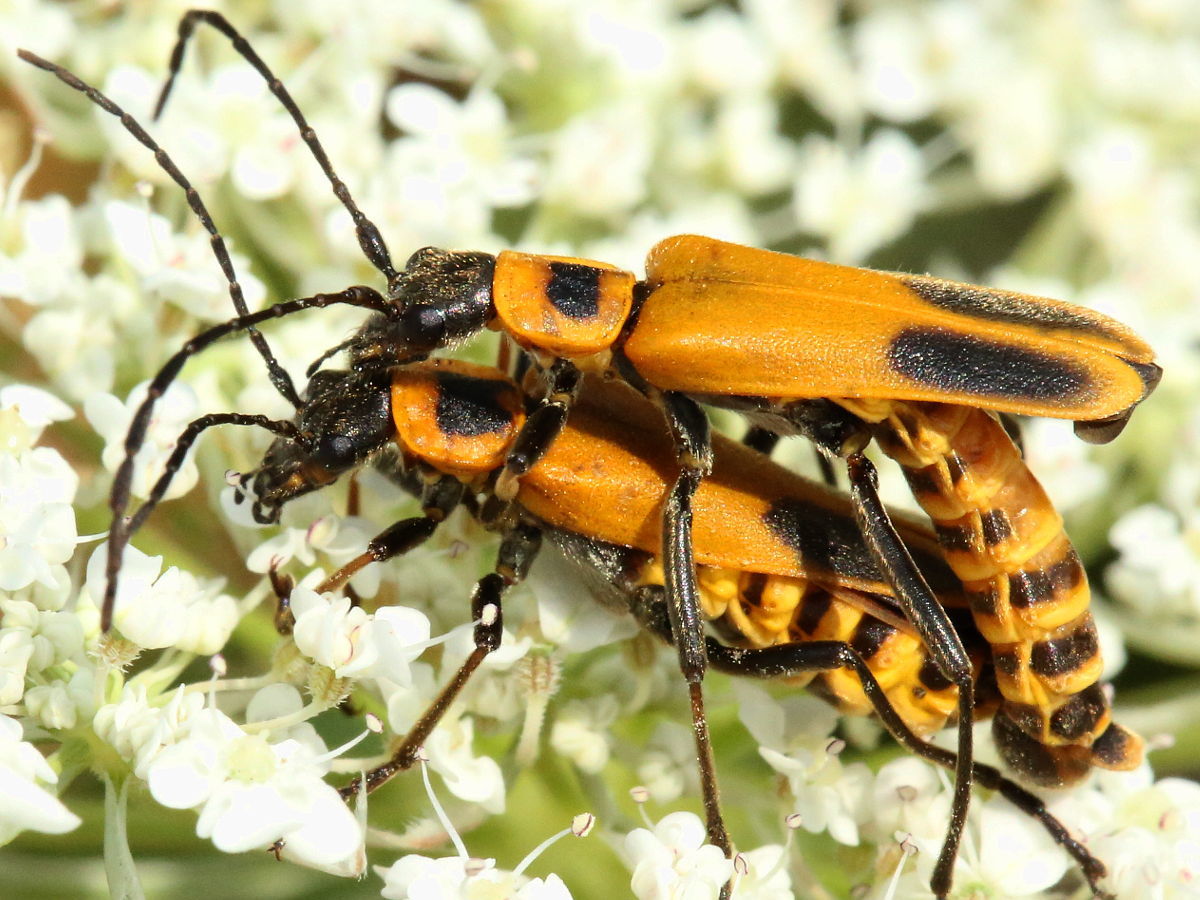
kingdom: Animalia
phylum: Arthropoda
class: Insecta
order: Coleoptera
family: Cantharidae
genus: Chauliognathus
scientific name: Chauliognathus pensylvanicus
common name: Goldenrod soldier beetle
